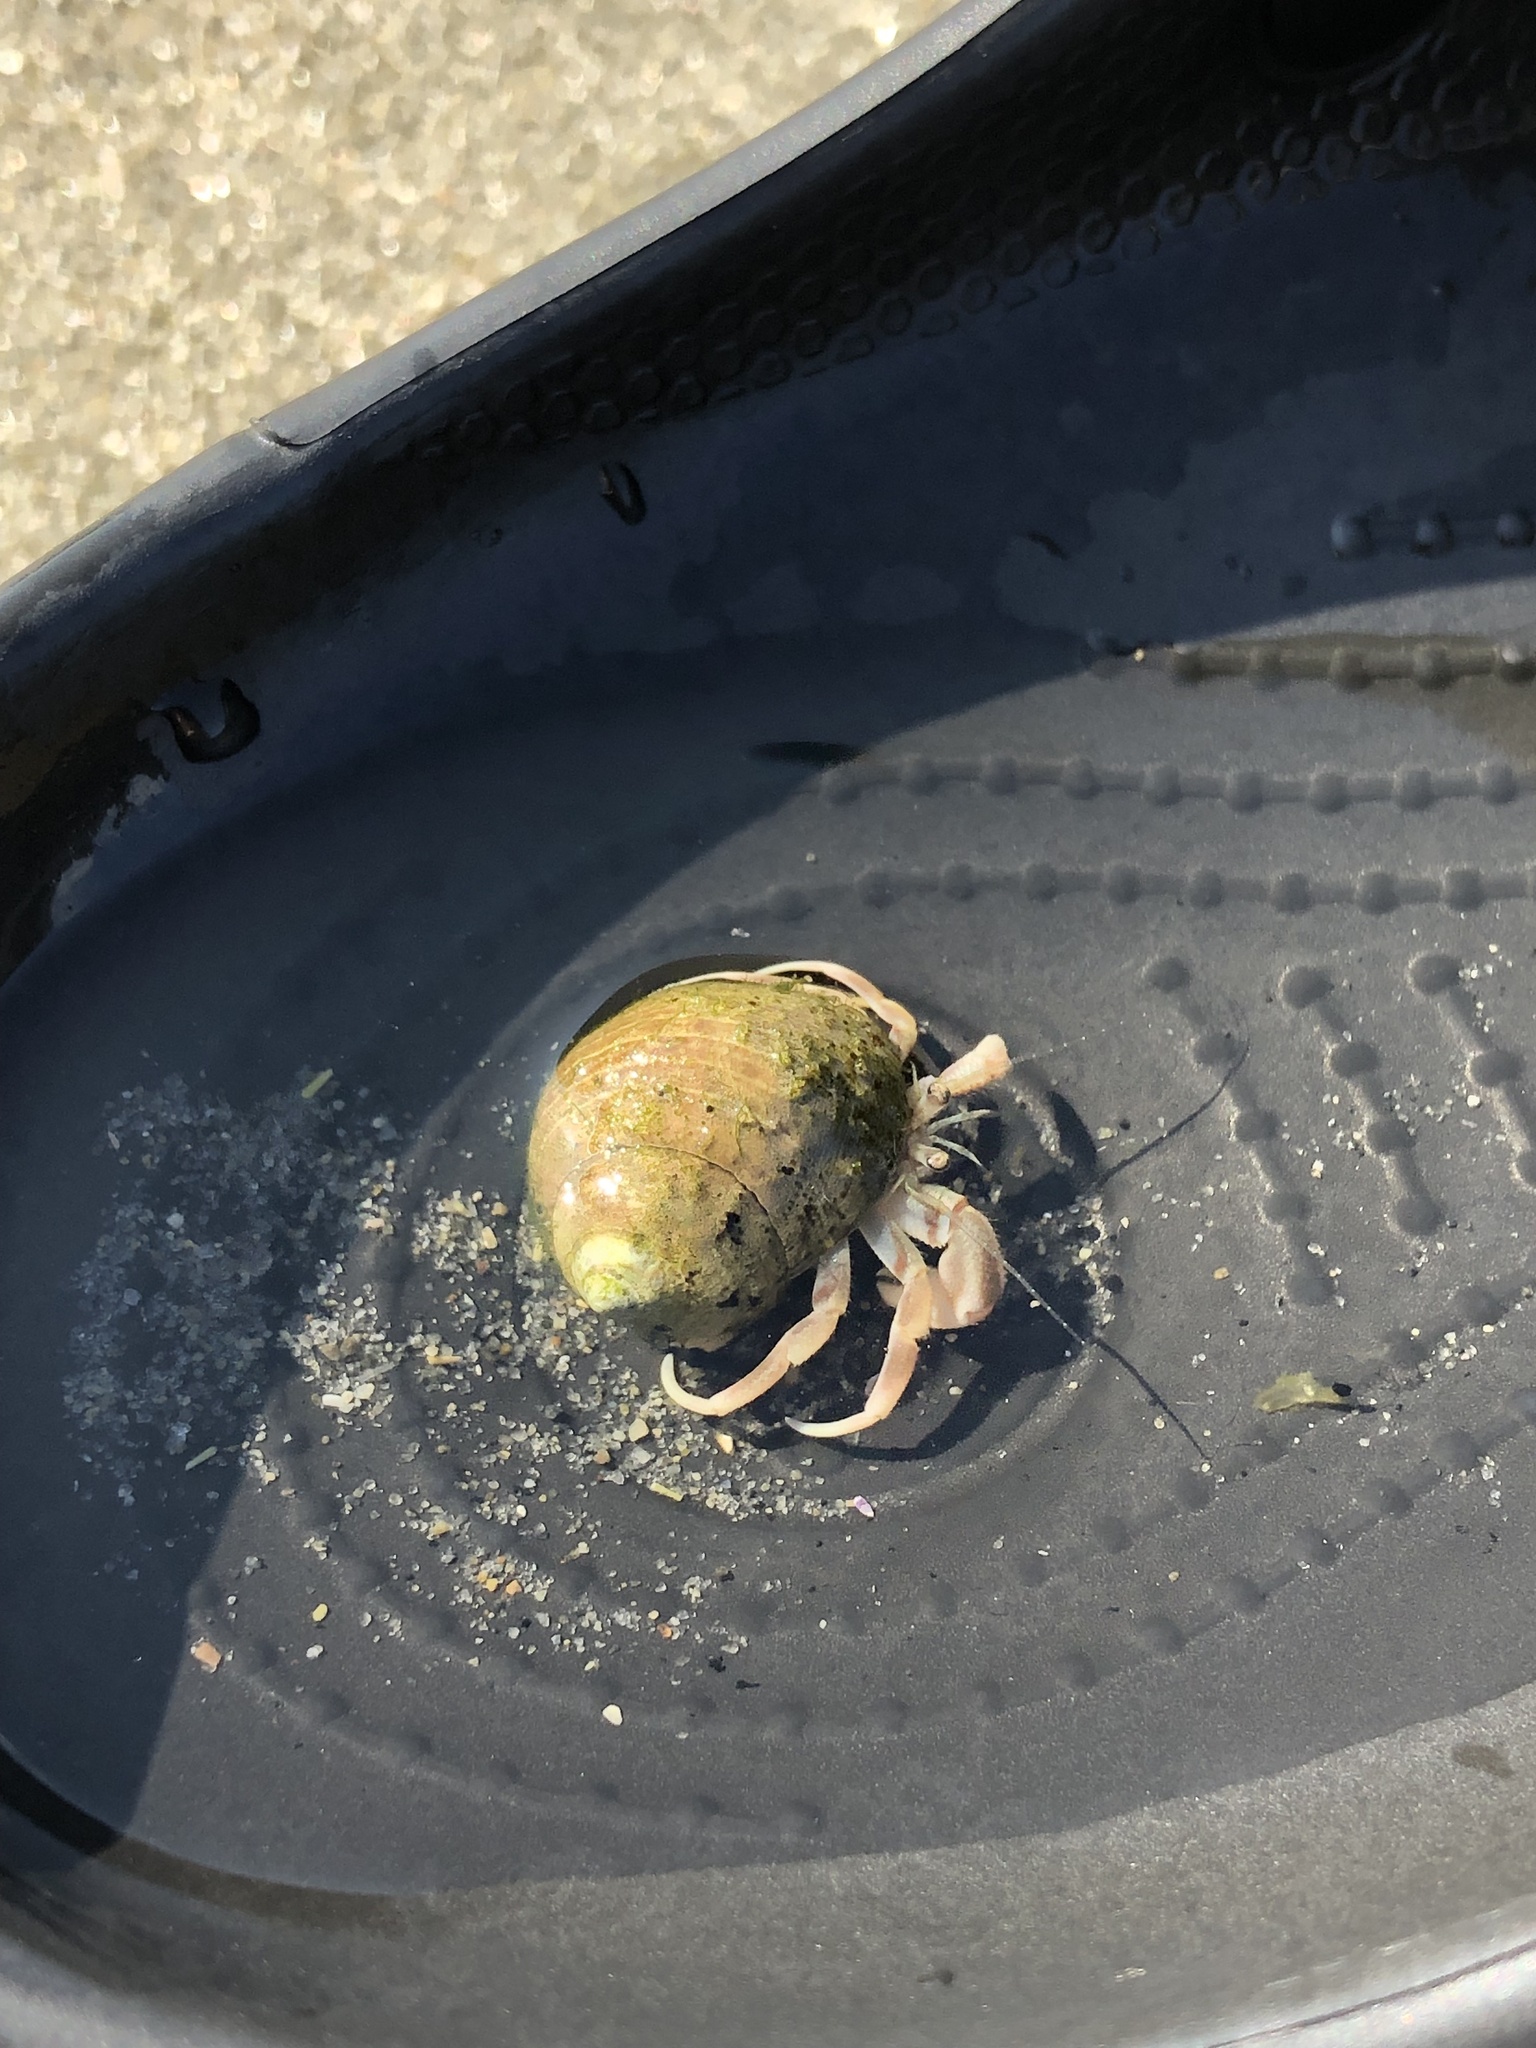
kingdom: Animalia
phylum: Arthropoda
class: Malacostraca
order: Decapoda
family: Paguridae
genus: Pagurus
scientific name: Pagurus longicarpus
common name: Long-armed hermit crab
